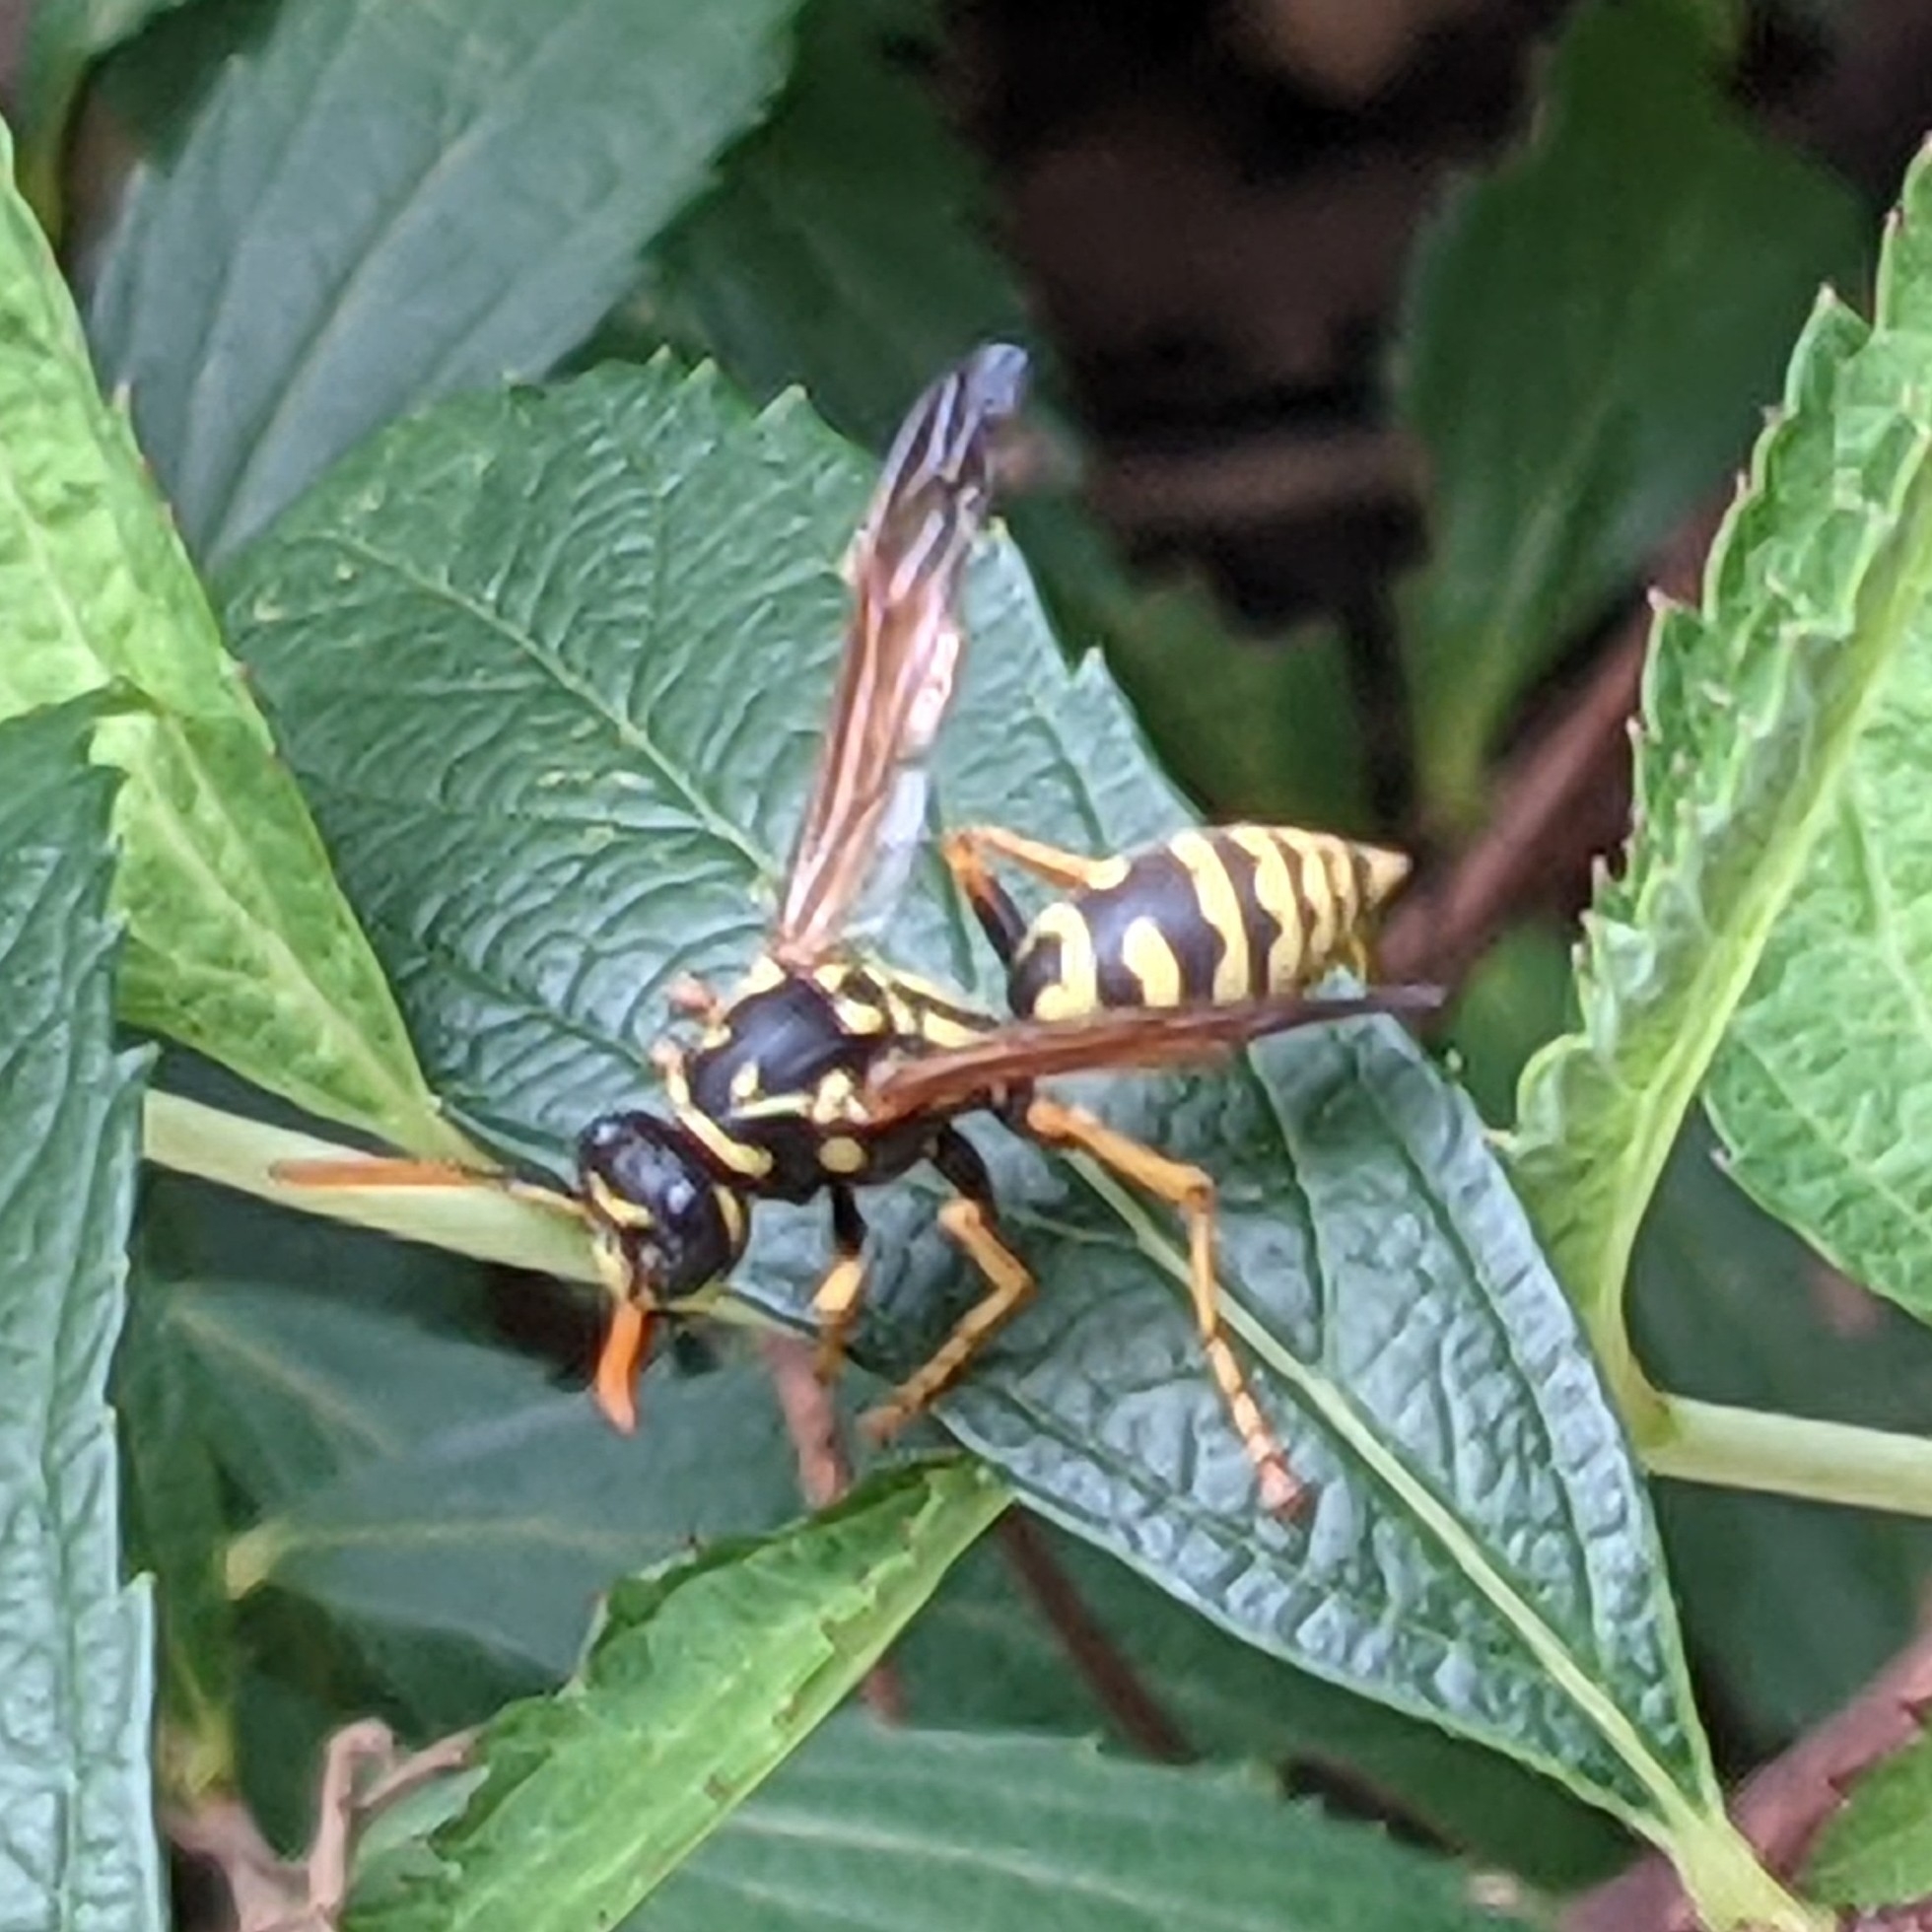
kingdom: Animalia
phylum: Arthropoda
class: Insecta
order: Hymenoptera
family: Eumenidae
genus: Polistes
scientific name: Polistes dominula
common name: Paper wasp
